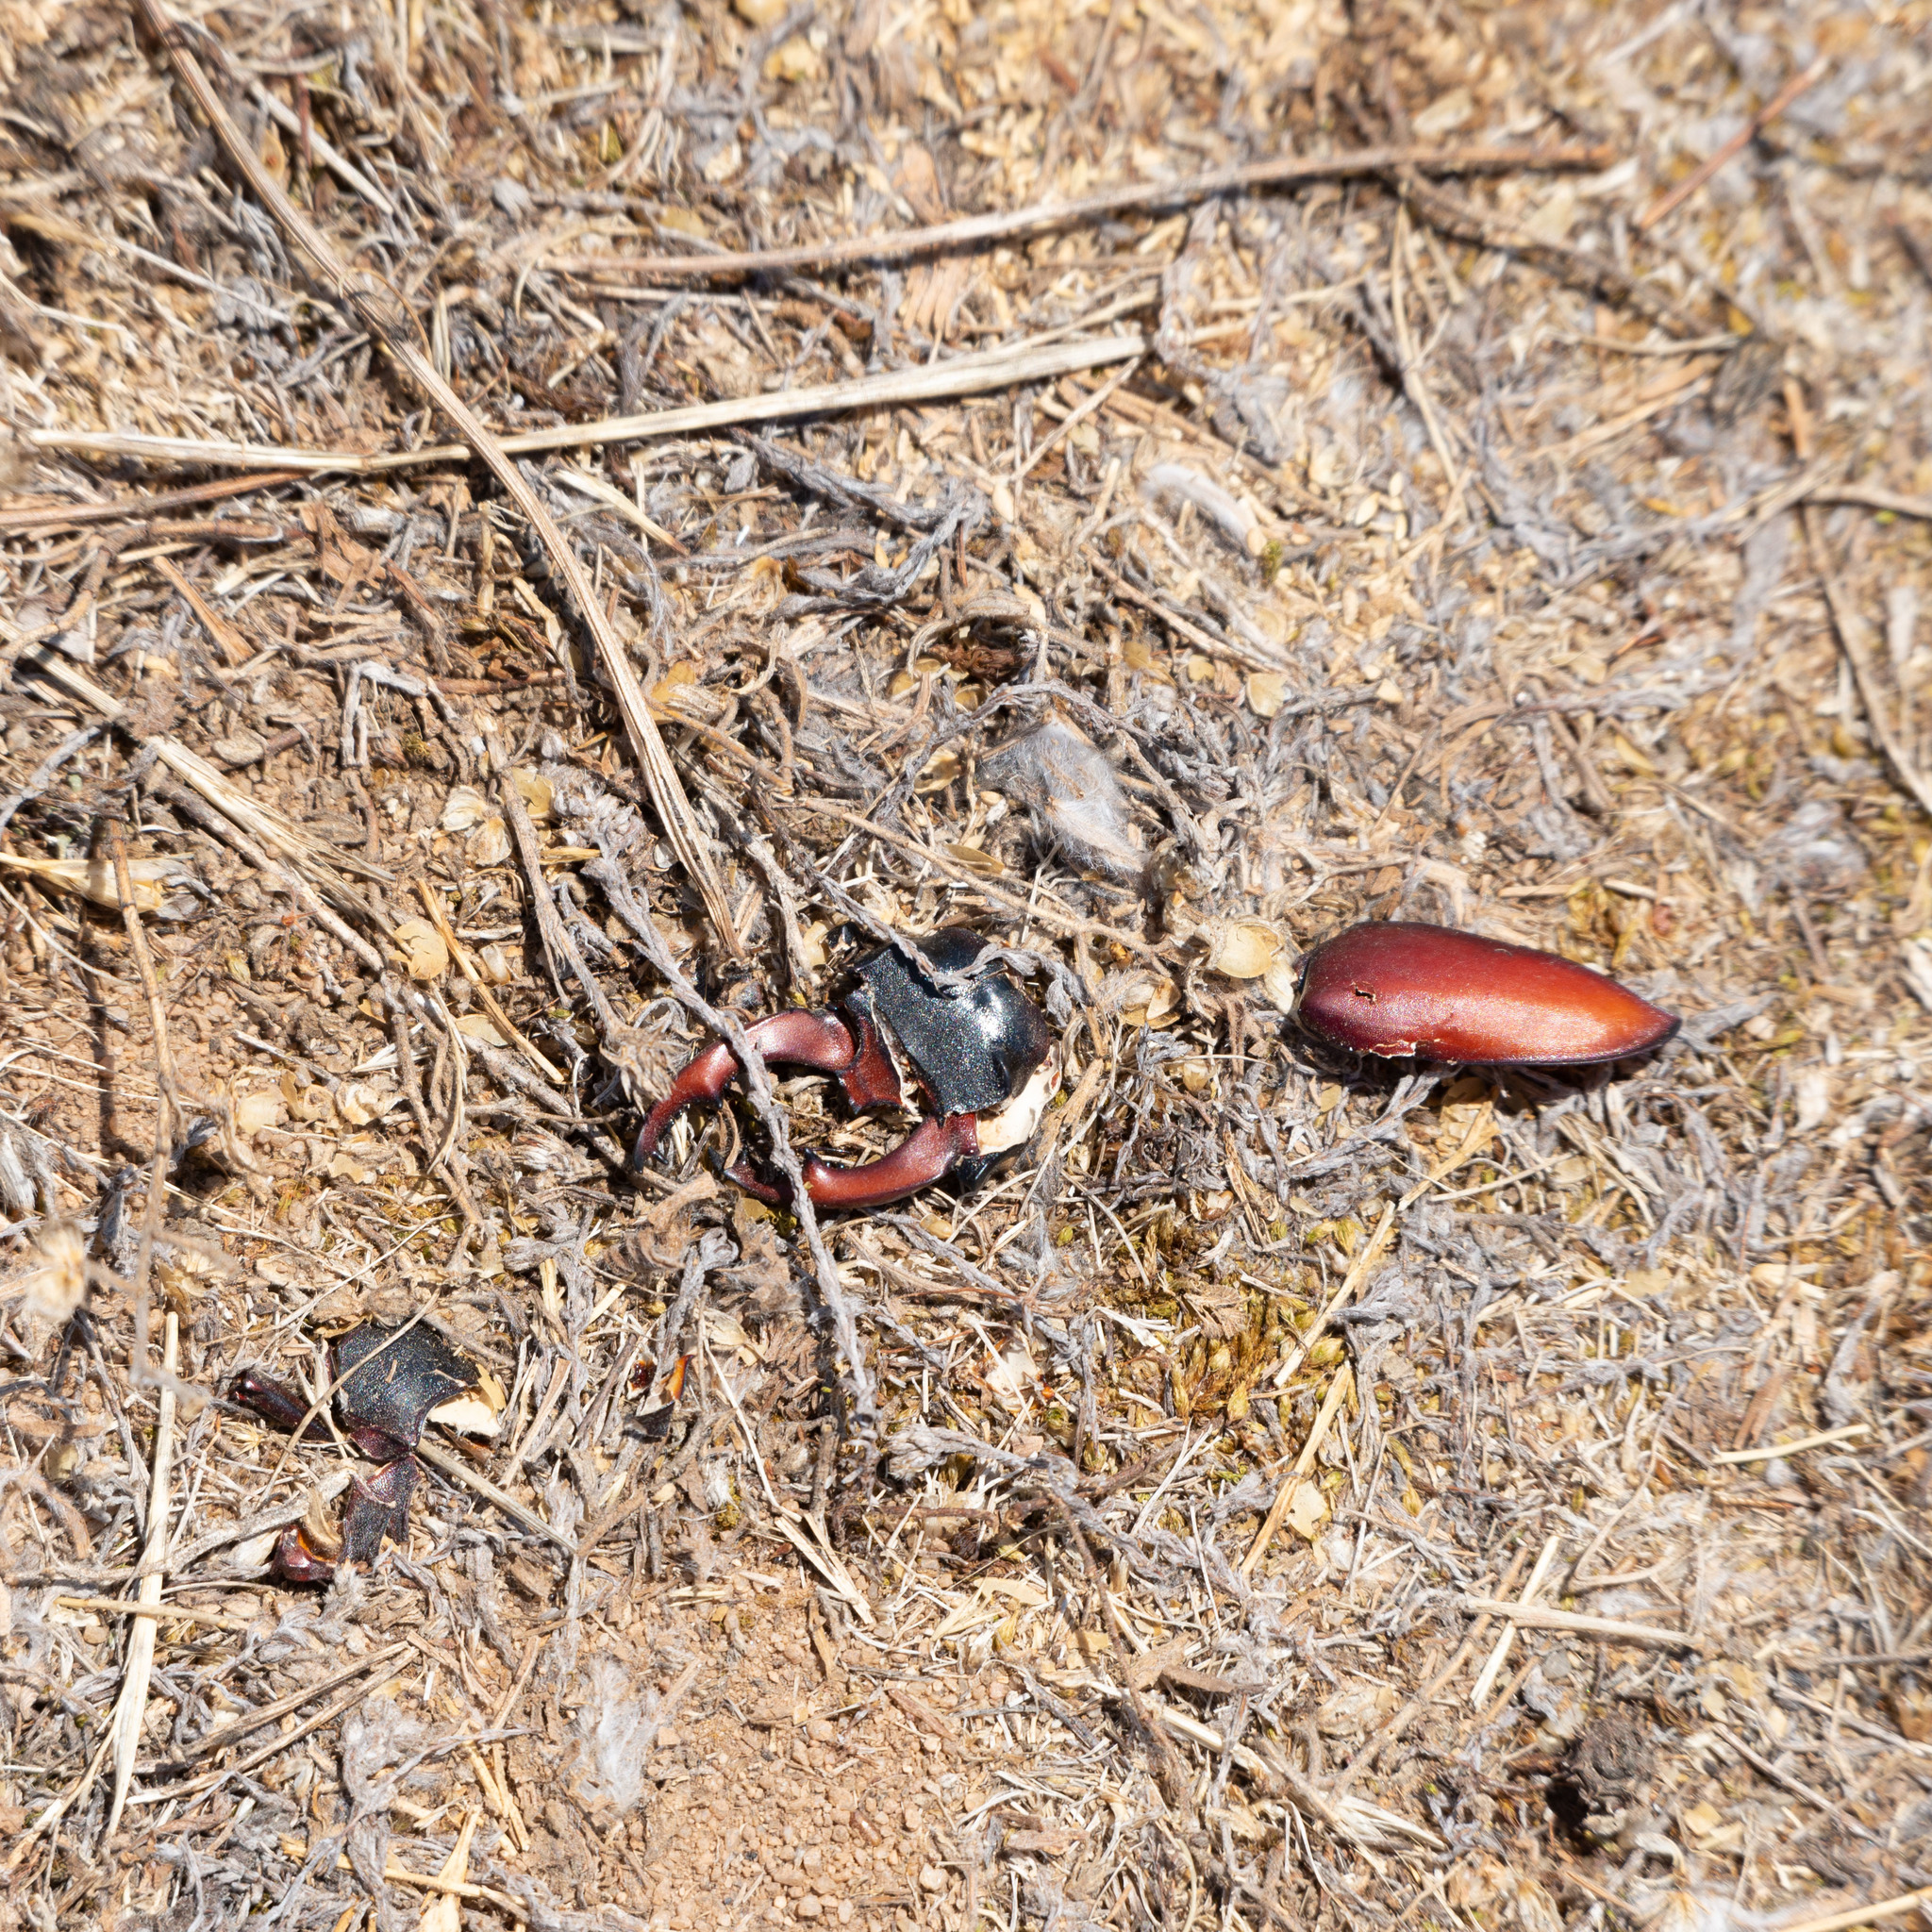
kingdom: Animalia
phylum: Arthropoda
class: Insecta
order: Coleoptera
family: Lucanidae
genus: Lucanus
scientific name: Lucanus cervus
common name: Stag beetle
